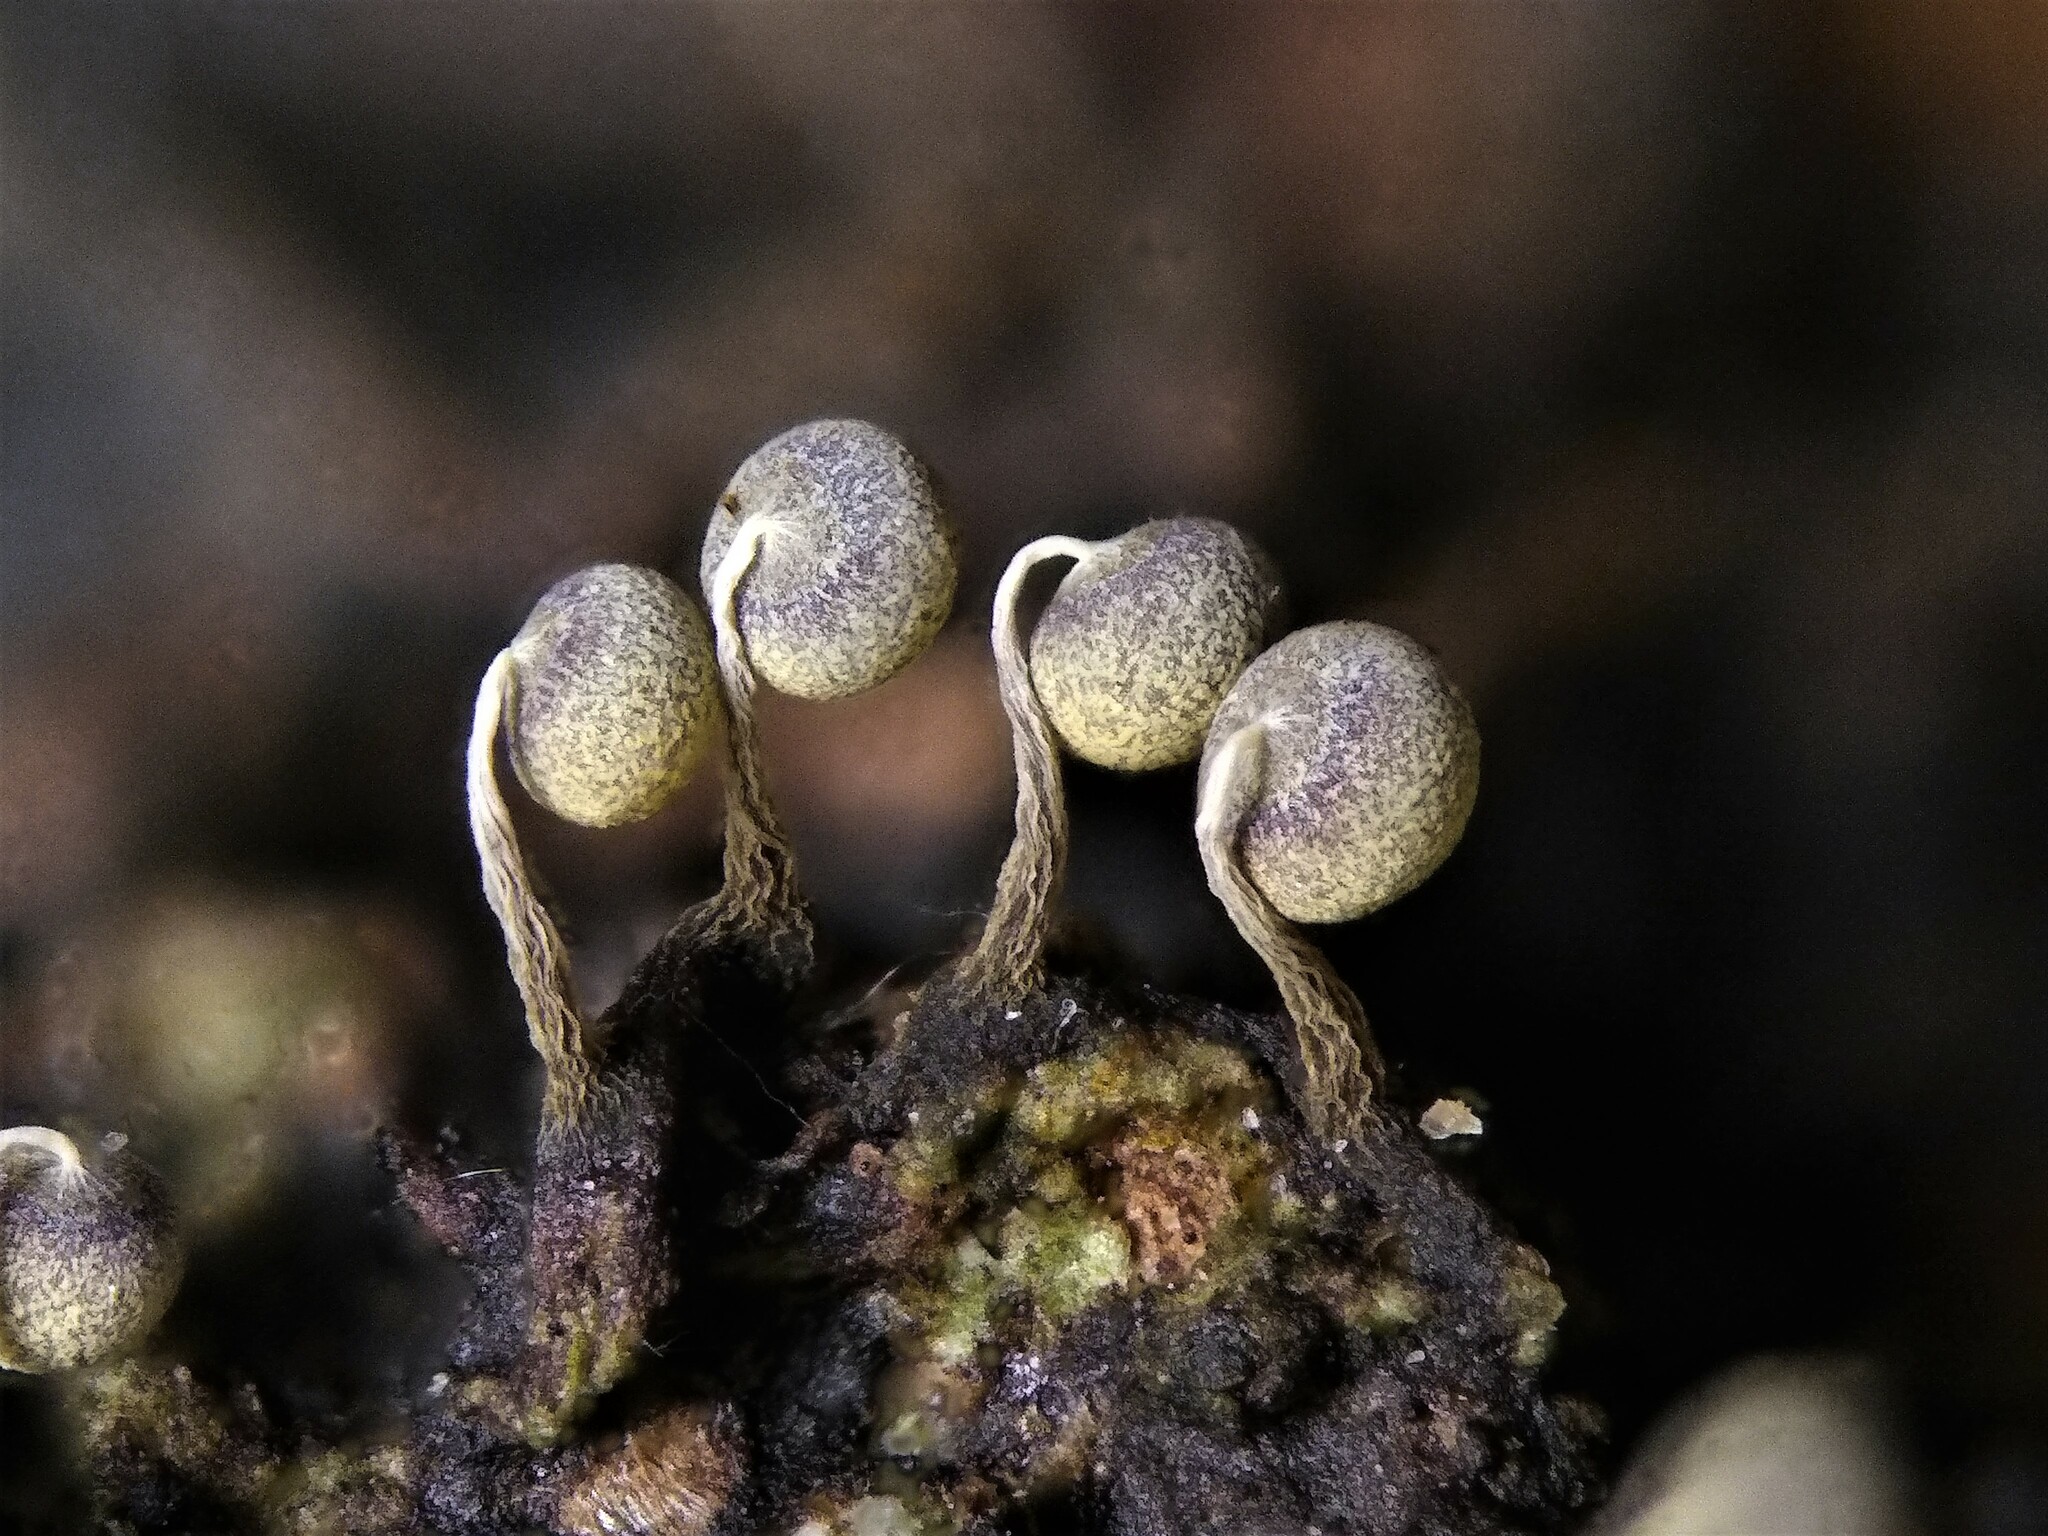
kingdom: Protozoa
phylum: Mycetozoa
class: Myxomycetes
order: Physarales
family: Physaraceae
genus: Physarum
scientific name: Physarum album
